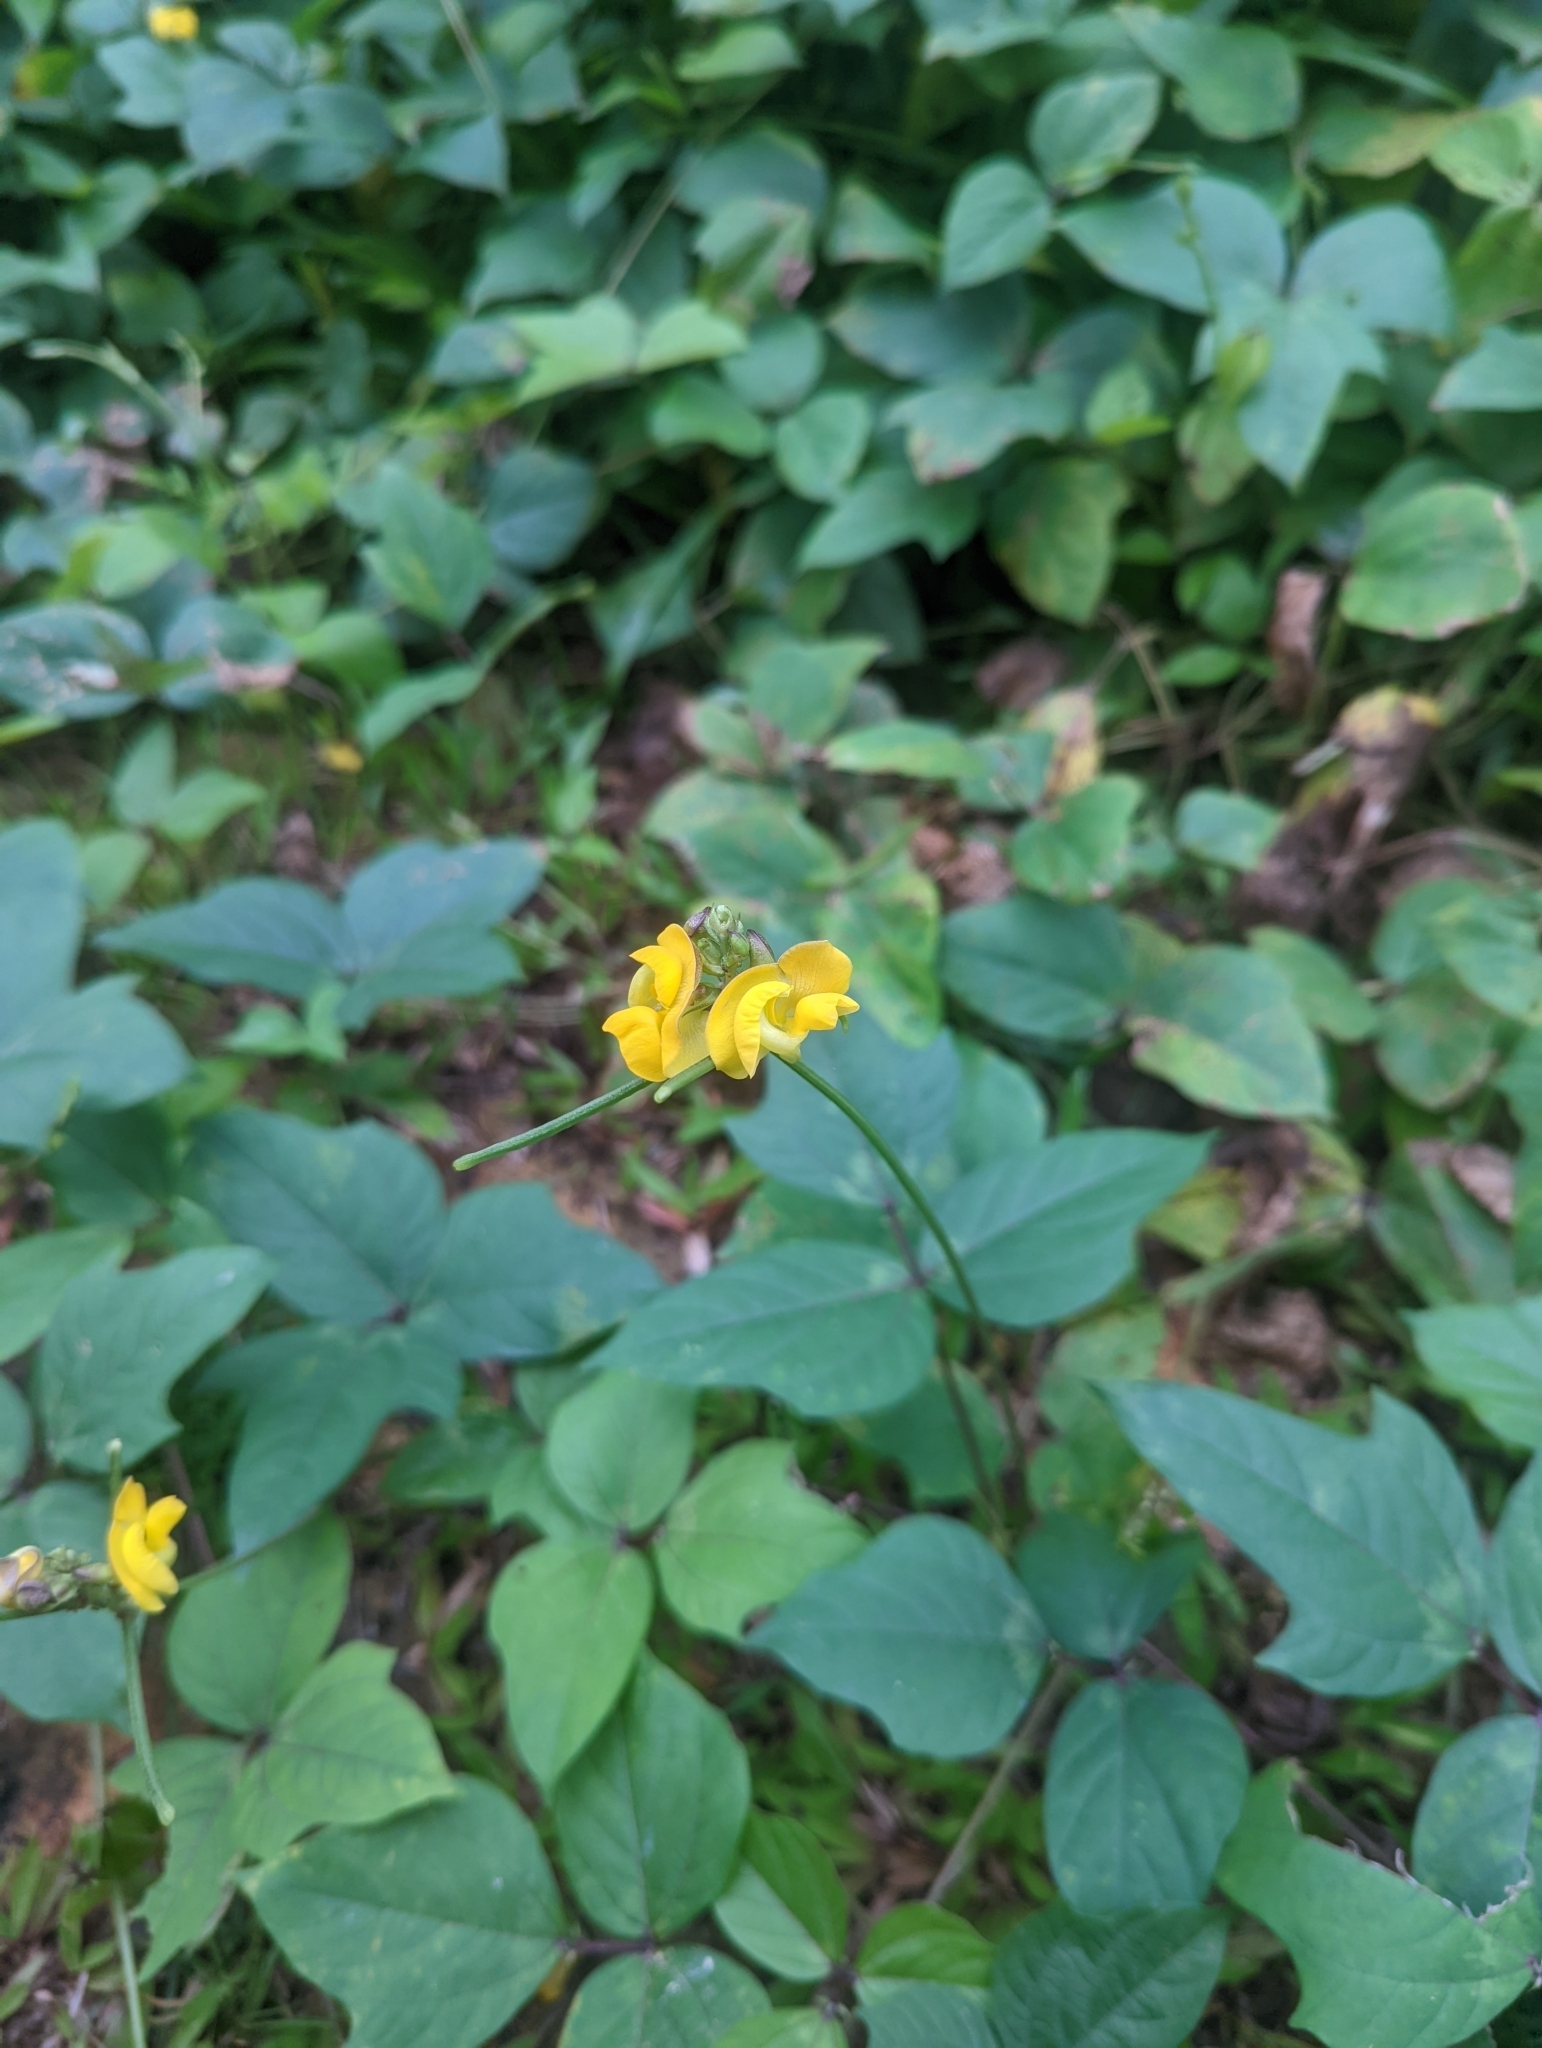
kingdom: Plantae
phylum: Tracheophyta
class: Magnoliopsida
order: Fabales
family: Fabaceae
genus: Vigna
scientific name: Vigna reflexopilosa
